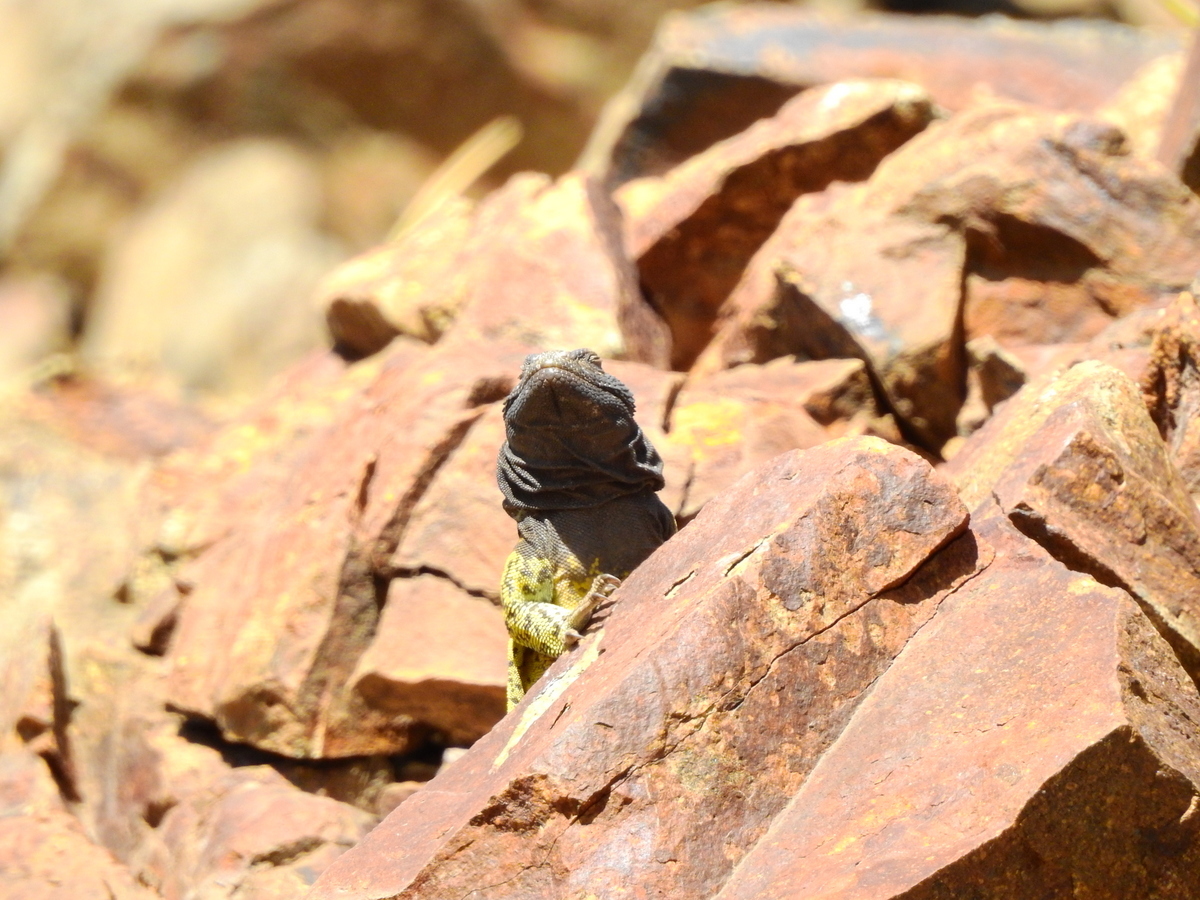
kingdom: Animalia
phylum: Chordata
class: Squamata
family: Liolaemidae
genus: Phymaturus
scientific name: Phymaturus verdugo
